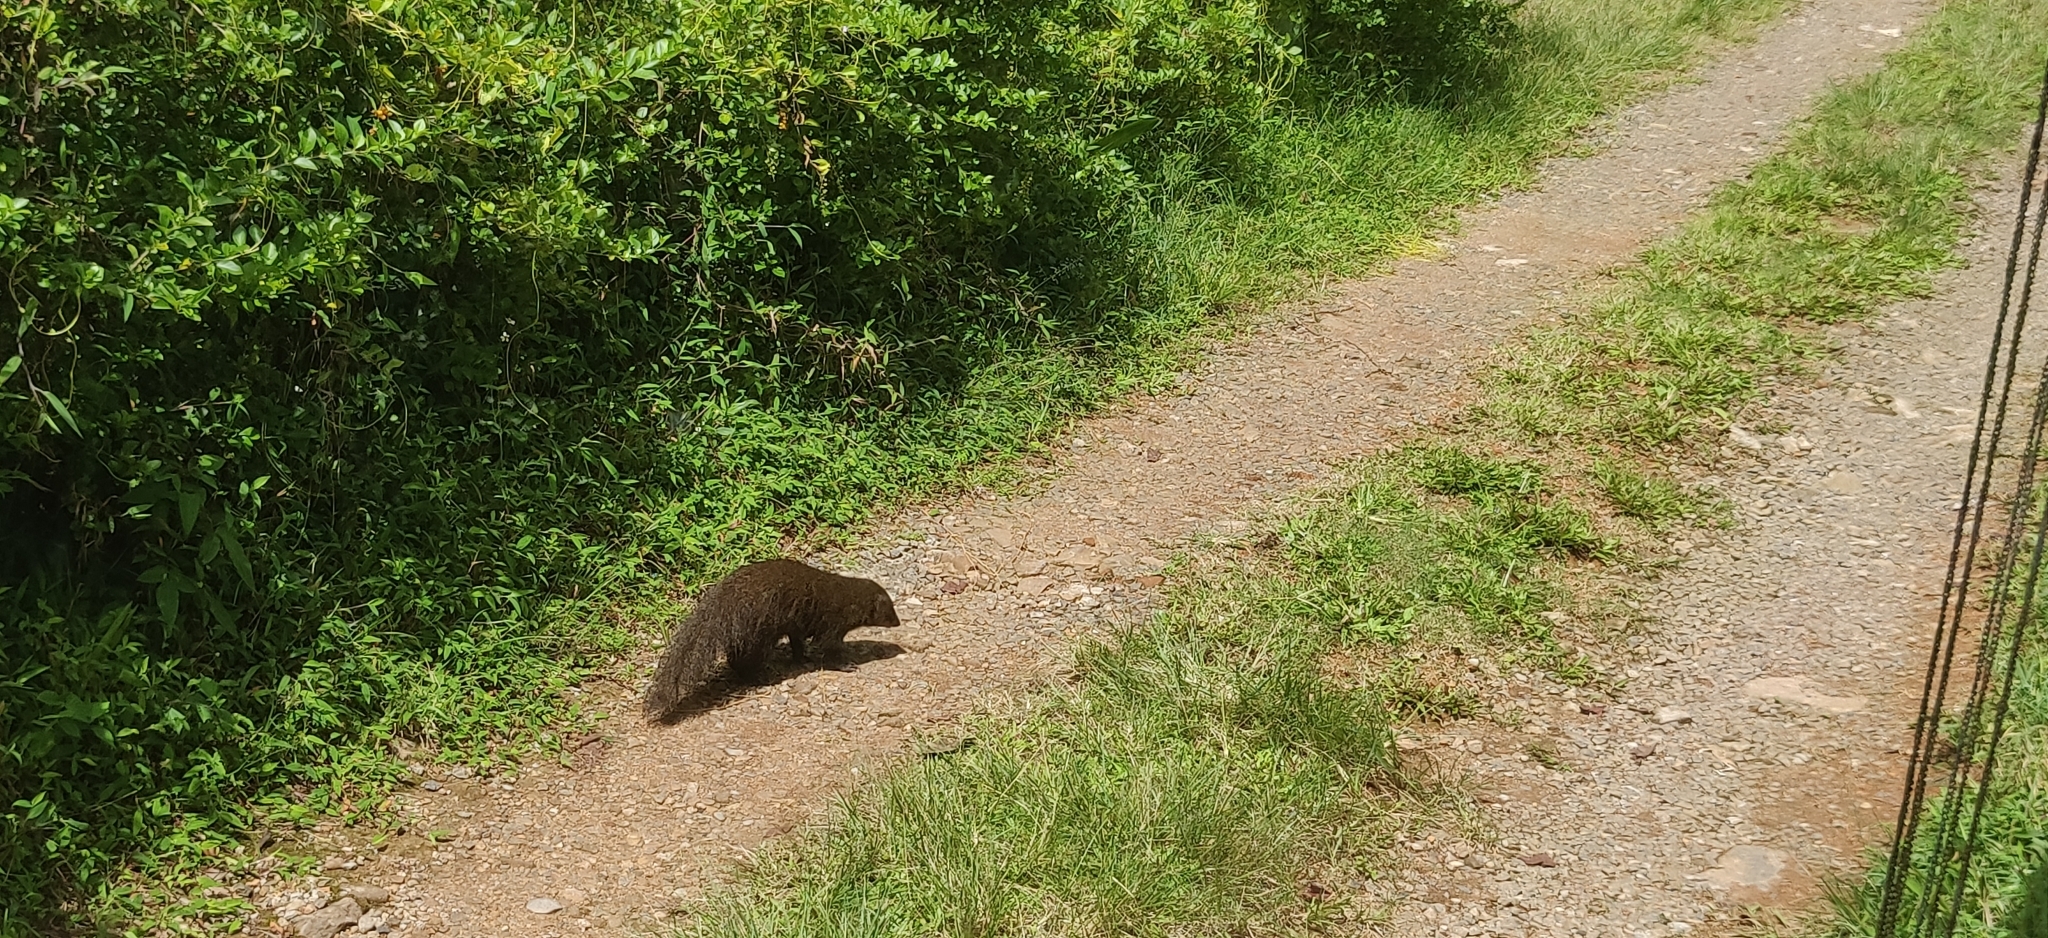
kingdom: Animalia
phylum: Chordata
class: Mammalia
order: Carnivora
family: Herpestidae
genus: Herpestes
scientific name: Herpestes fuscus
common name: Indian brown mongoose
